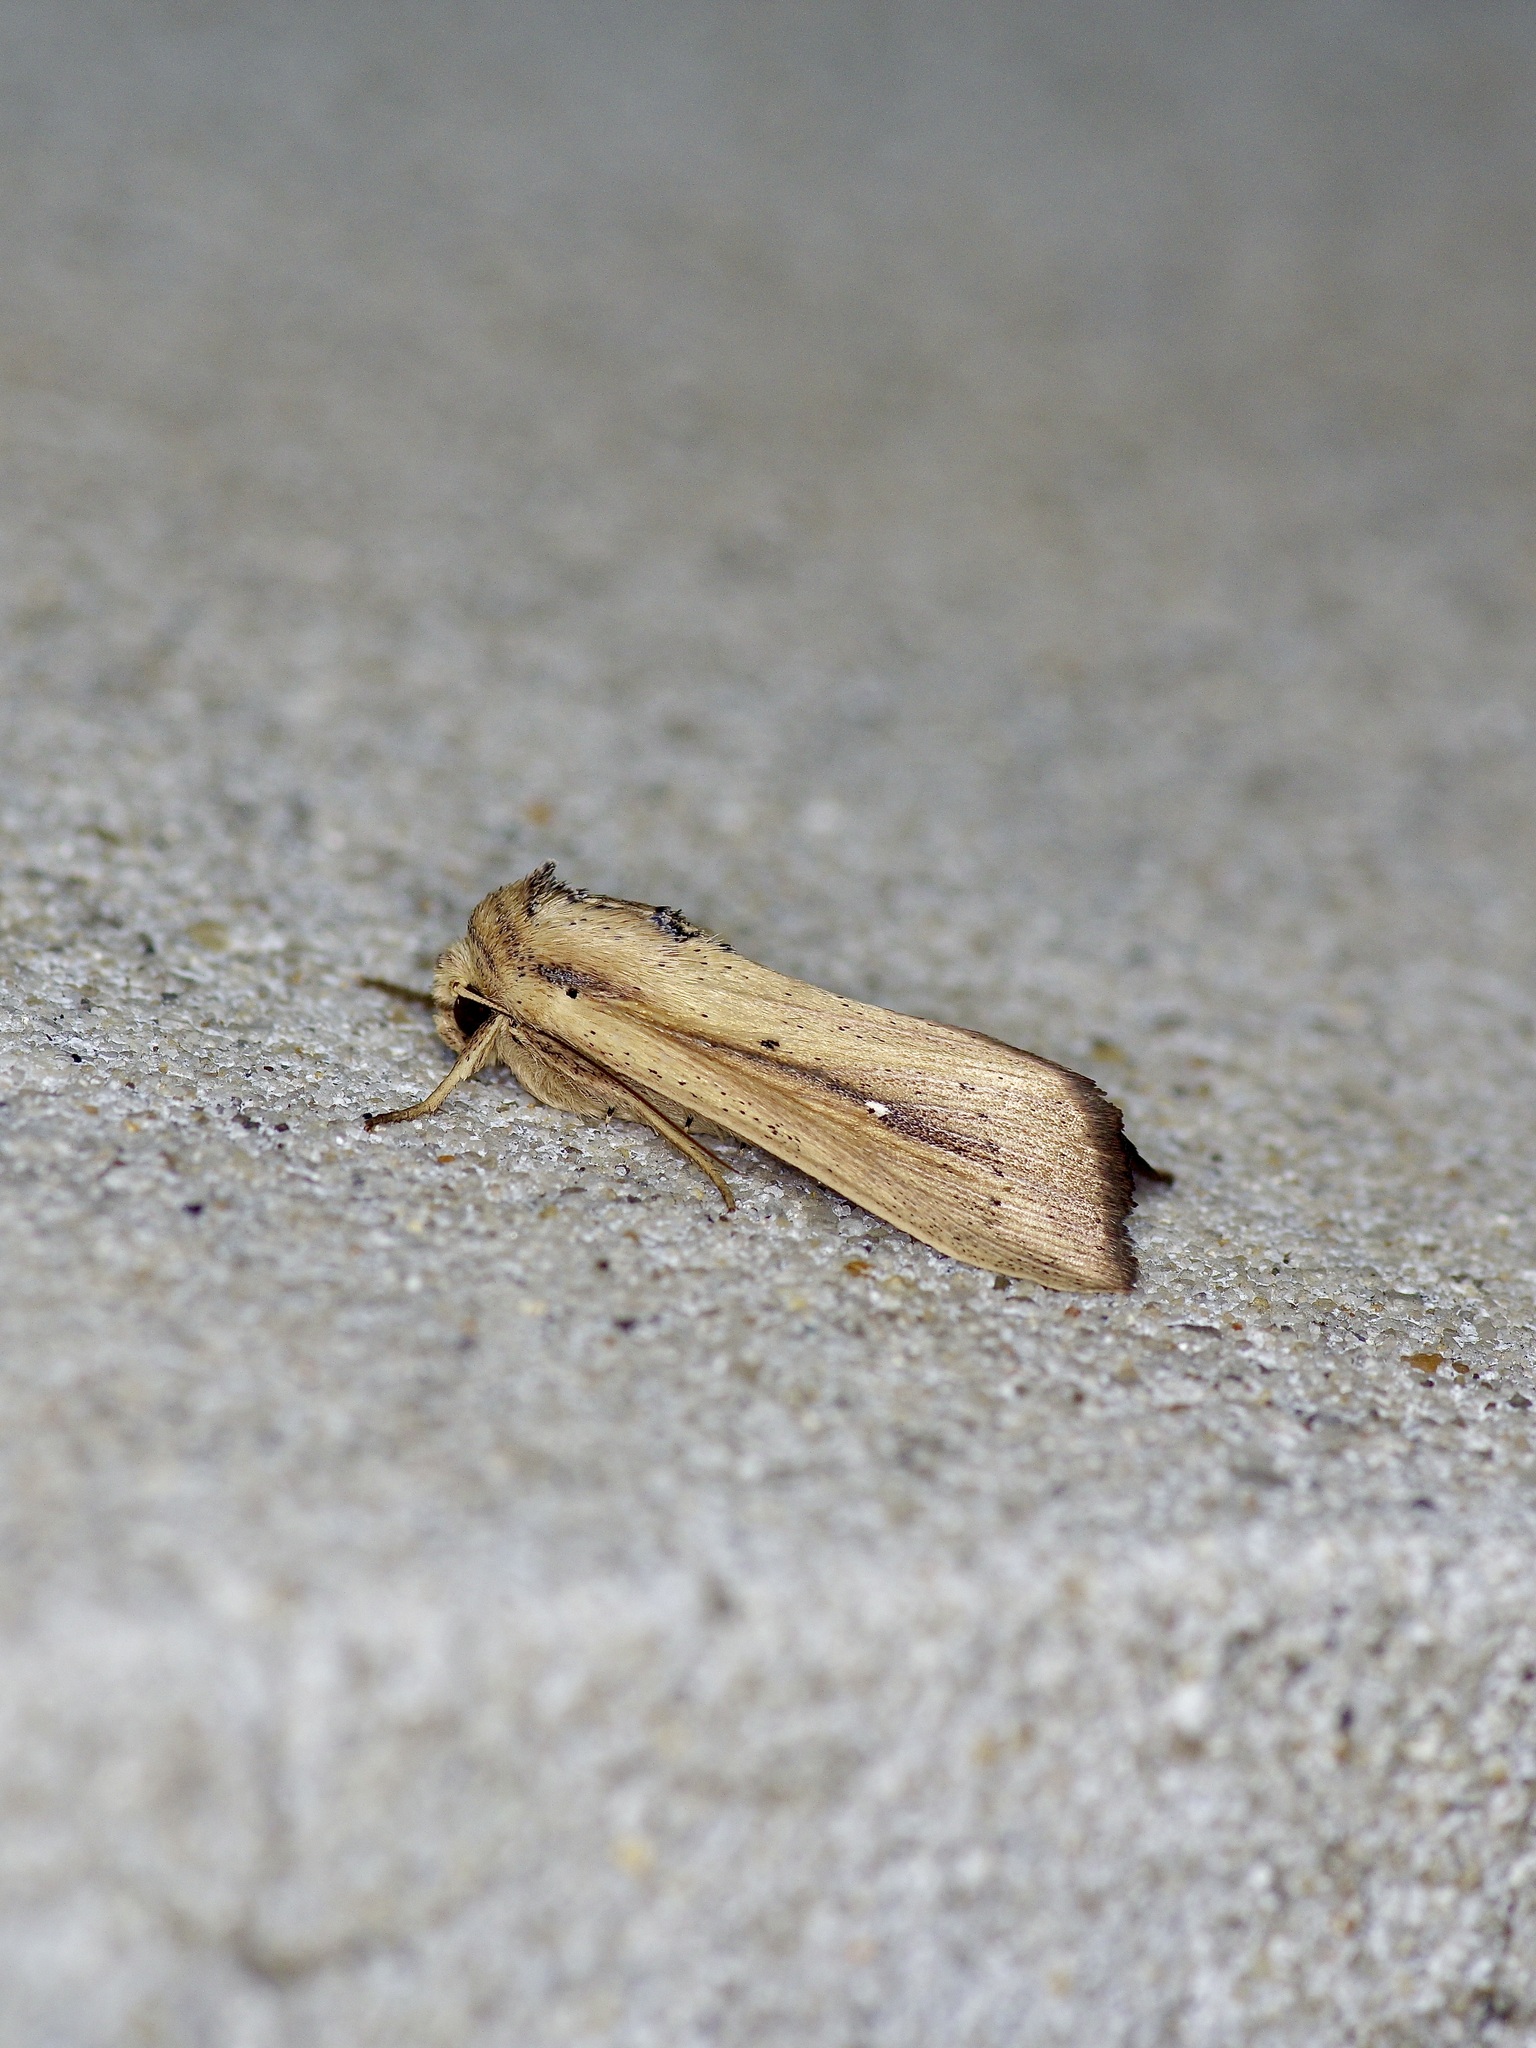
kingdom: Animalia
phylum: Arthropoda
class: Insecta
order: Lepidoptera
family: Noctuidae
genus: Leucania
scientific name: Leucania incognita
